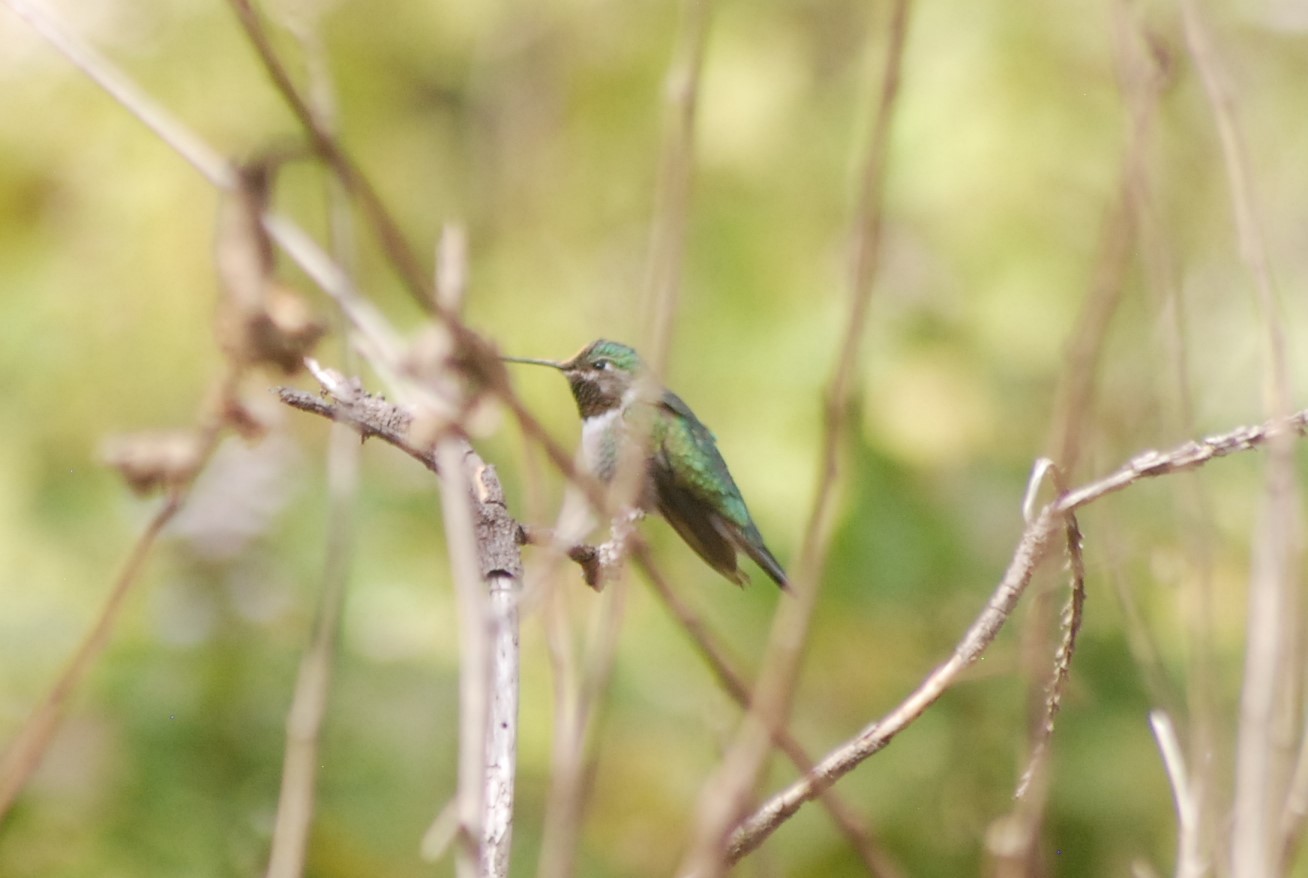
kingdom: Animalia
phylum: Chordata
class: Aves
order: Apodiformes
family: Trochilidae
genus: Selasphorus
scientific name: Selasphorus platycercus
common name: Broad-tailed hummingbird
